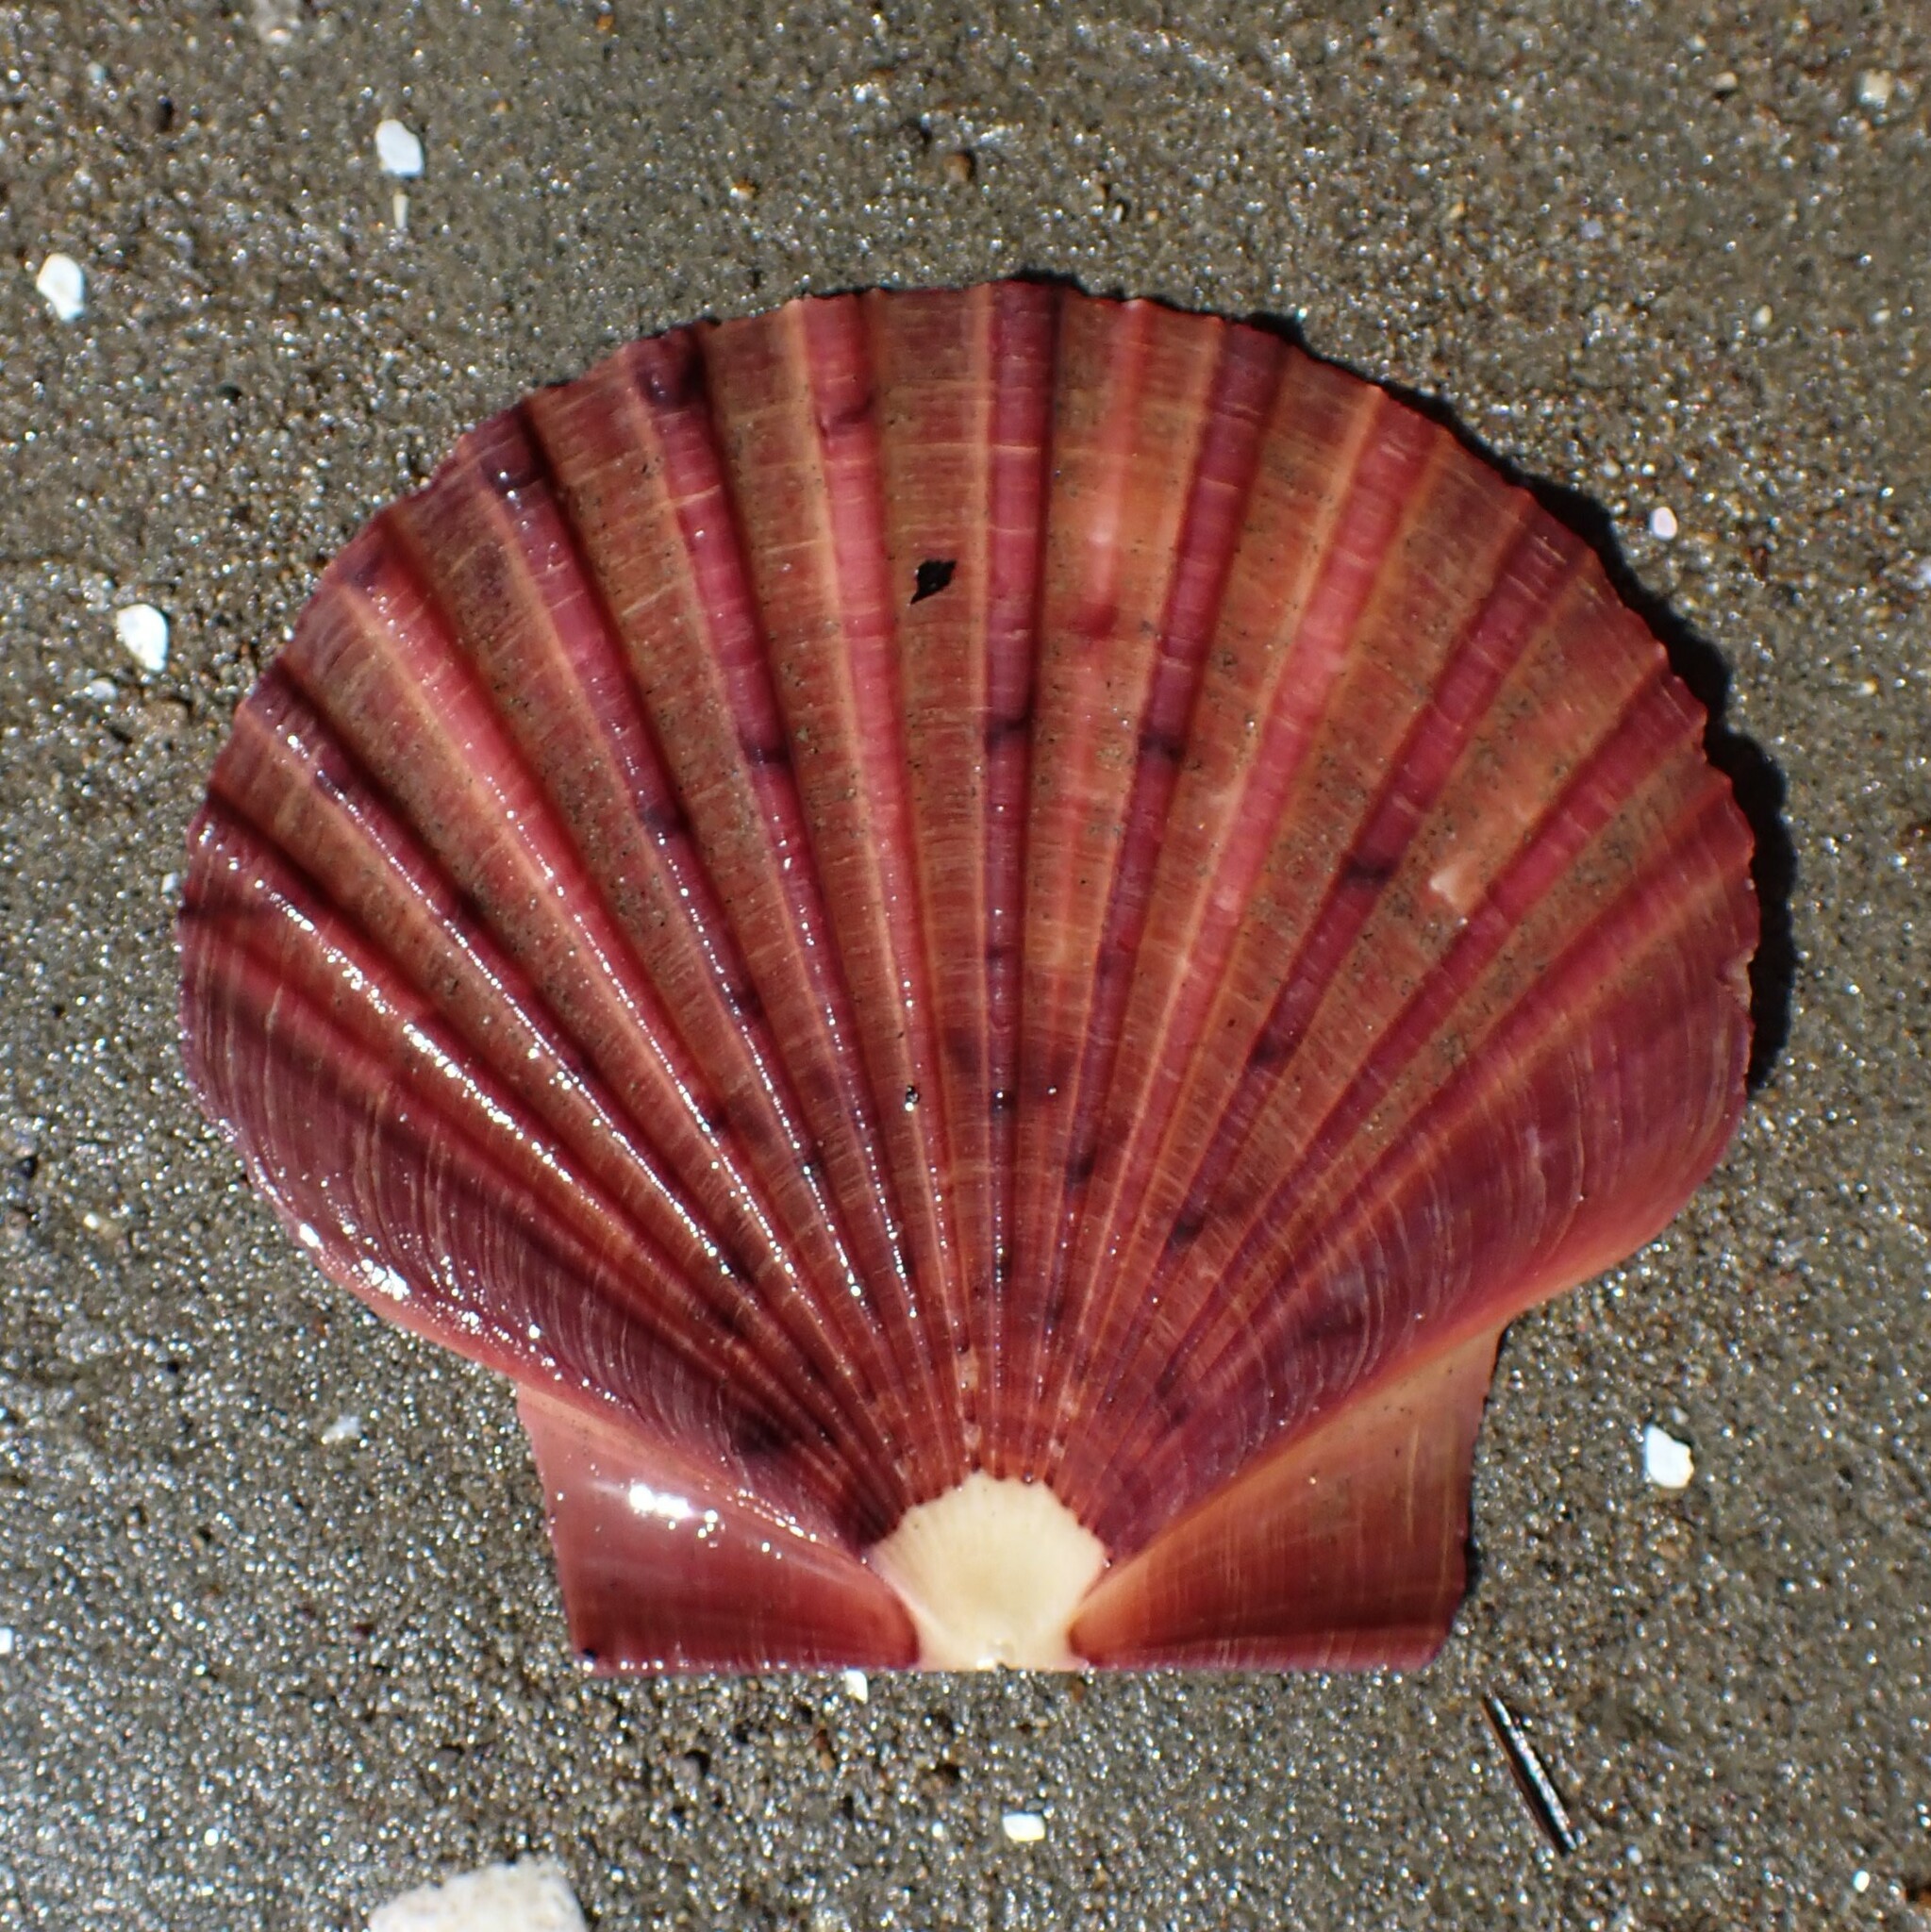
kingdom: Animalia
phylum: Mollusca
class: Bivalvia
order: Pectinida
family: Pectinidae
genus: Pecten
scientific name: Pecten novaezelandiae
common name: New zealand scallop
